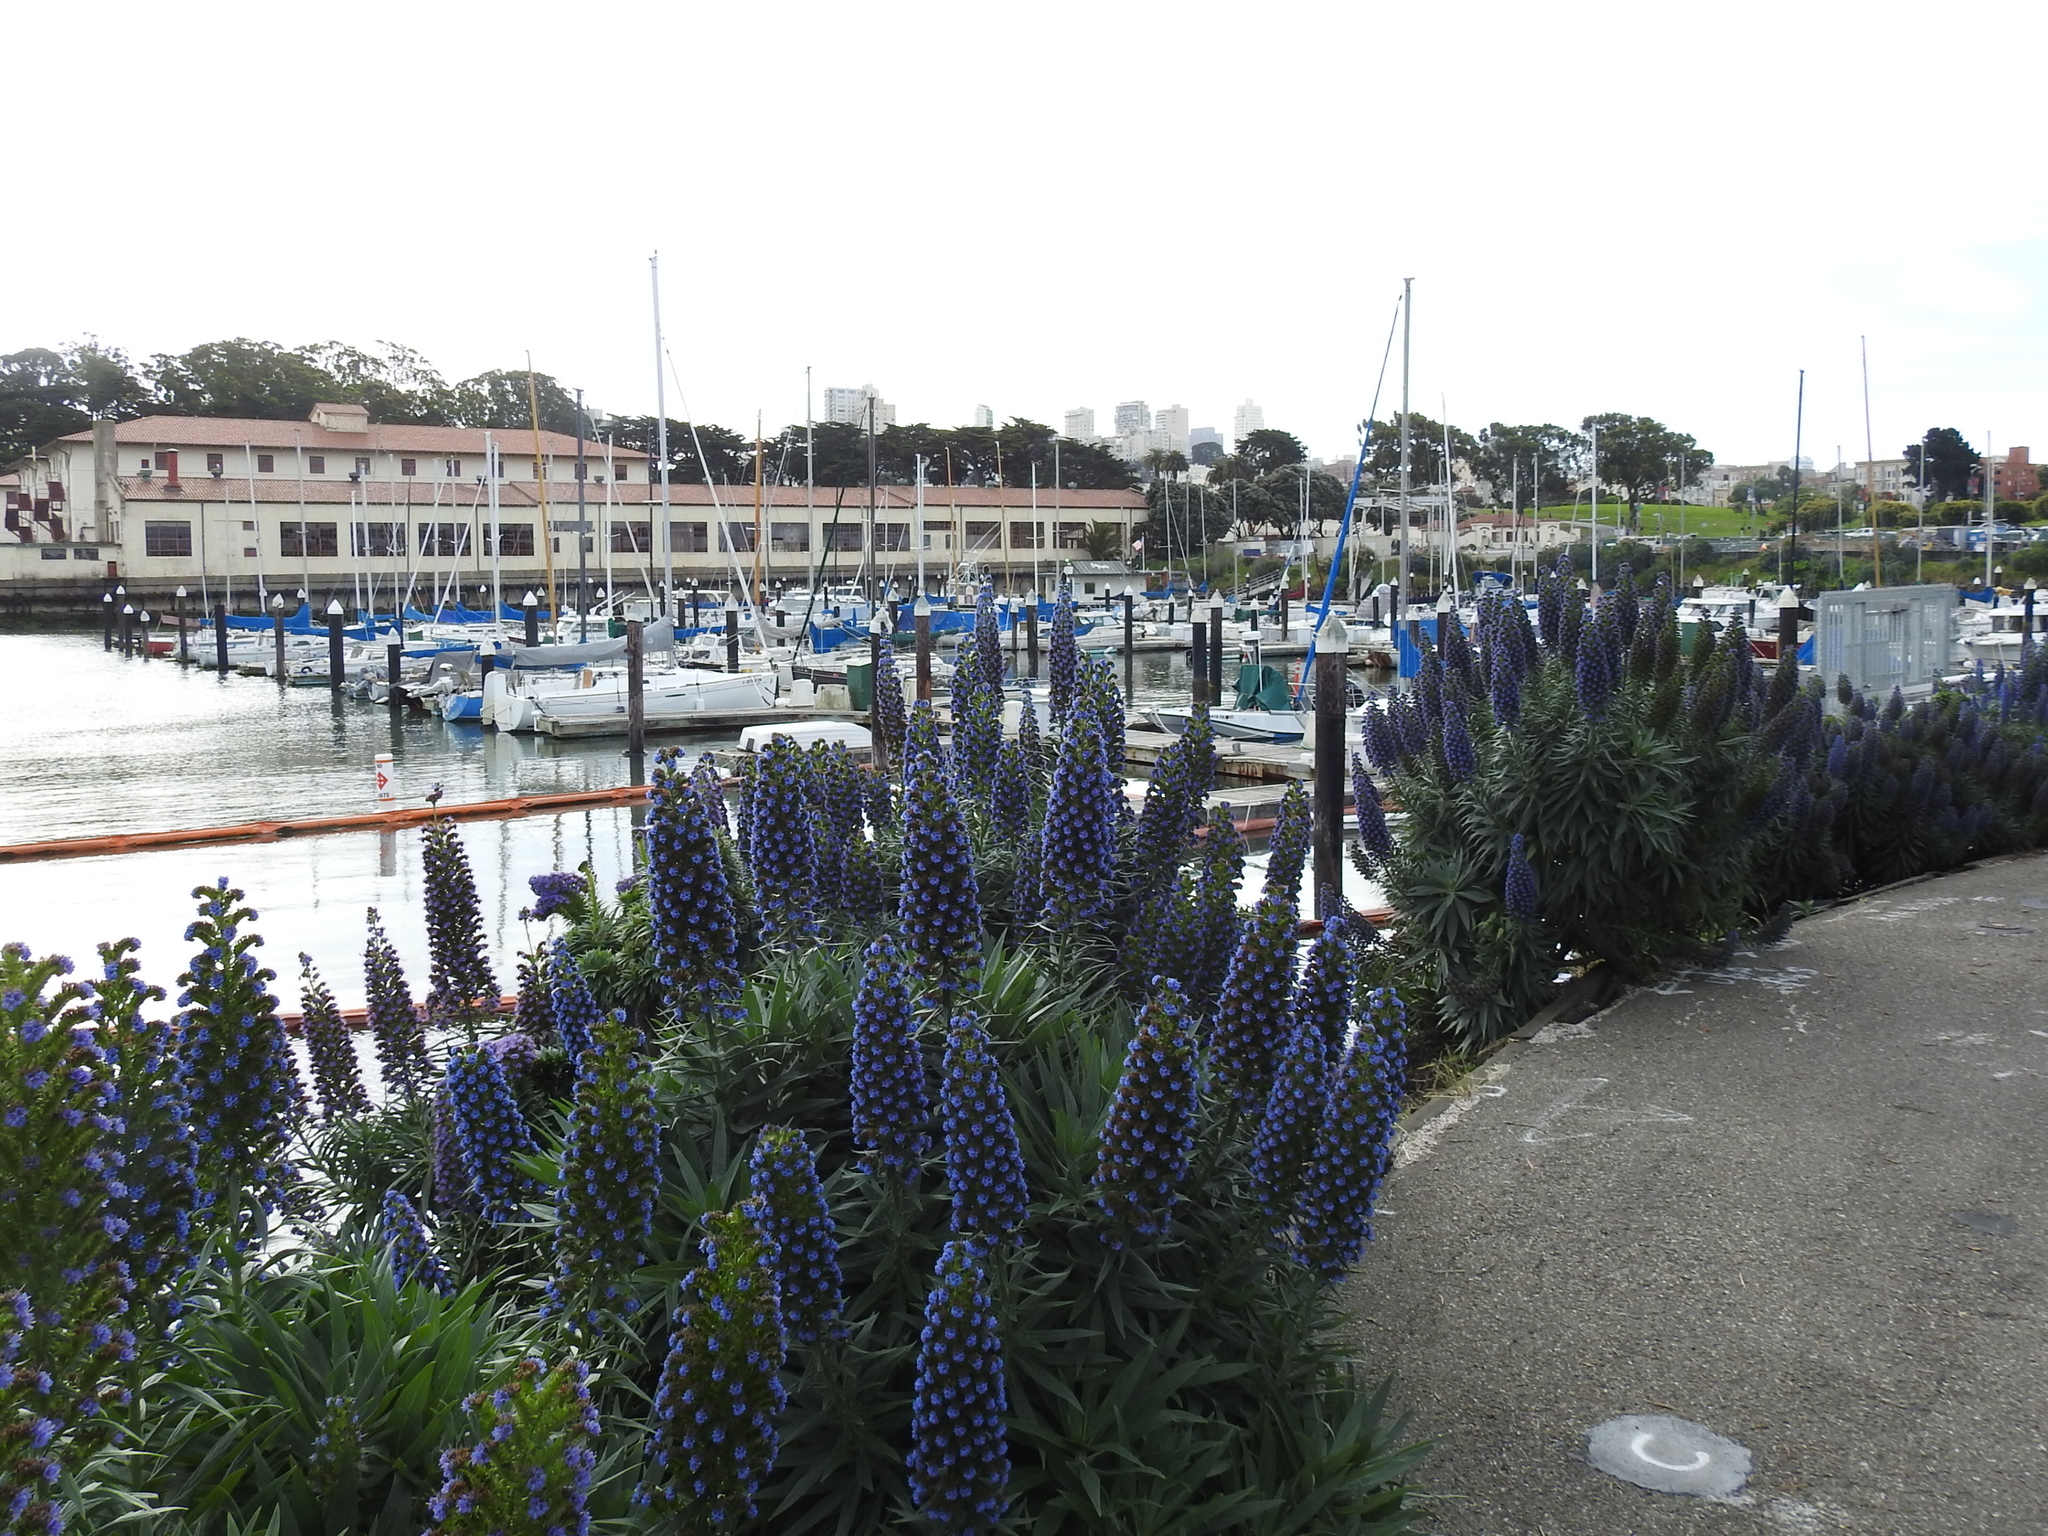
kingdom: Plantae
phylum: Tracheophyta
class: Magnoliopsida
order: Boraginales
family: Boraginaceae
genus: Echium
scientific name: Echium candicans
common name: Pride of madeira
